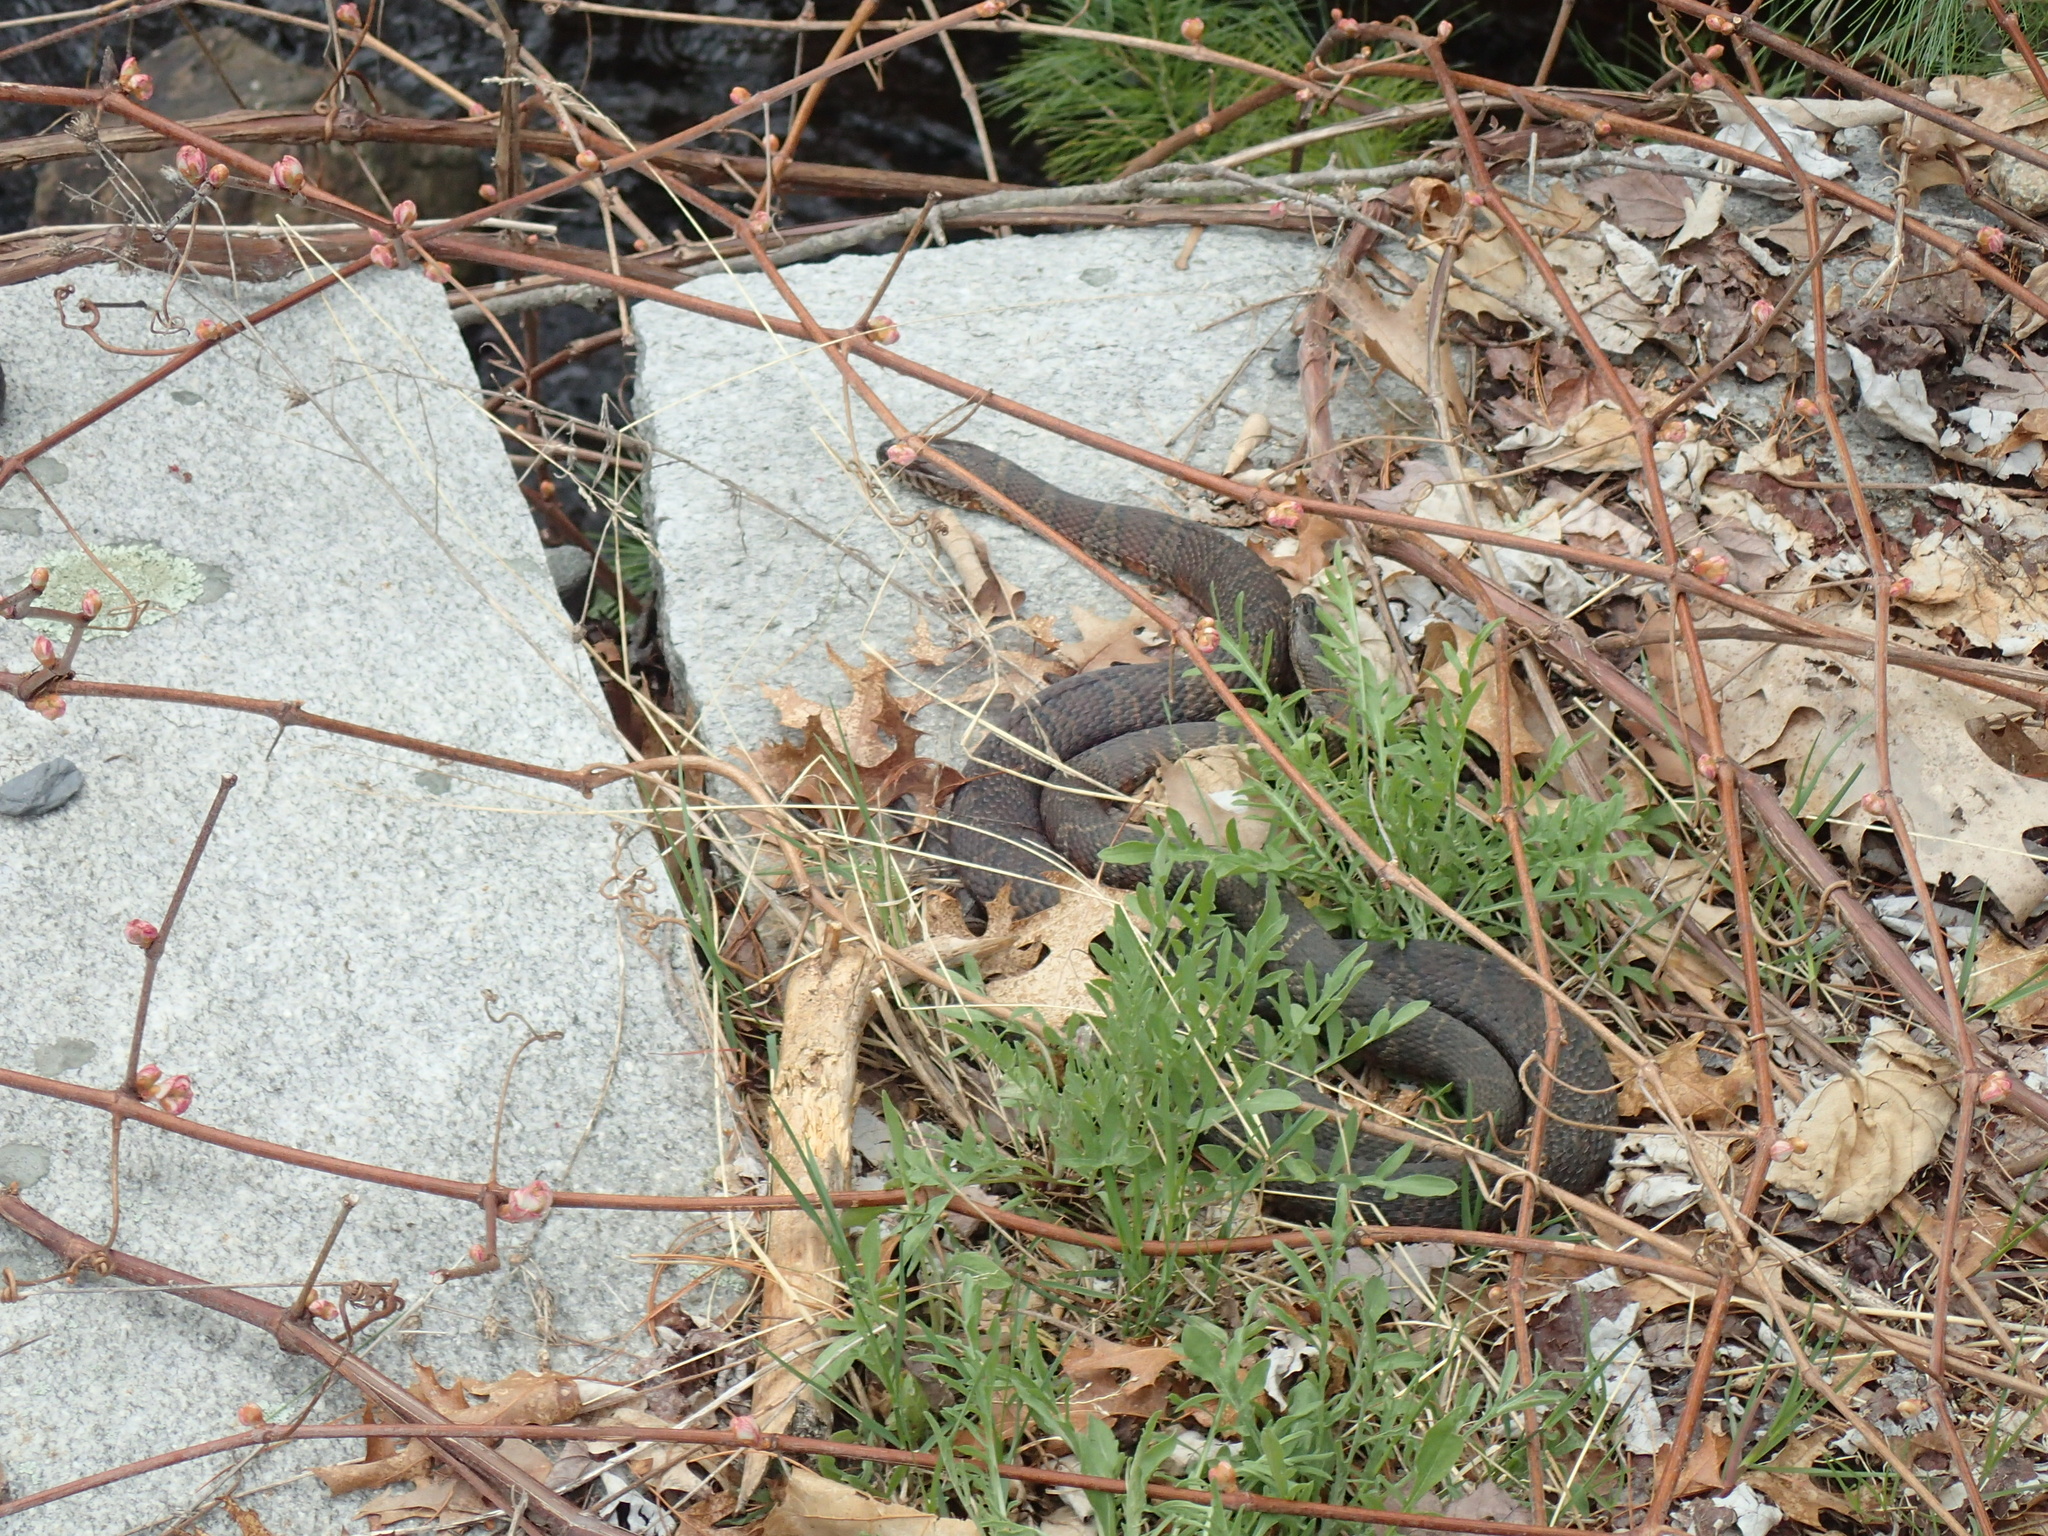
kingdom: Animalia
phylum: Chordata
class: Squamata
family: Colubridae
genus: Nerodia
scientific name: Nerodia sipedon
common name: Northern water snake
